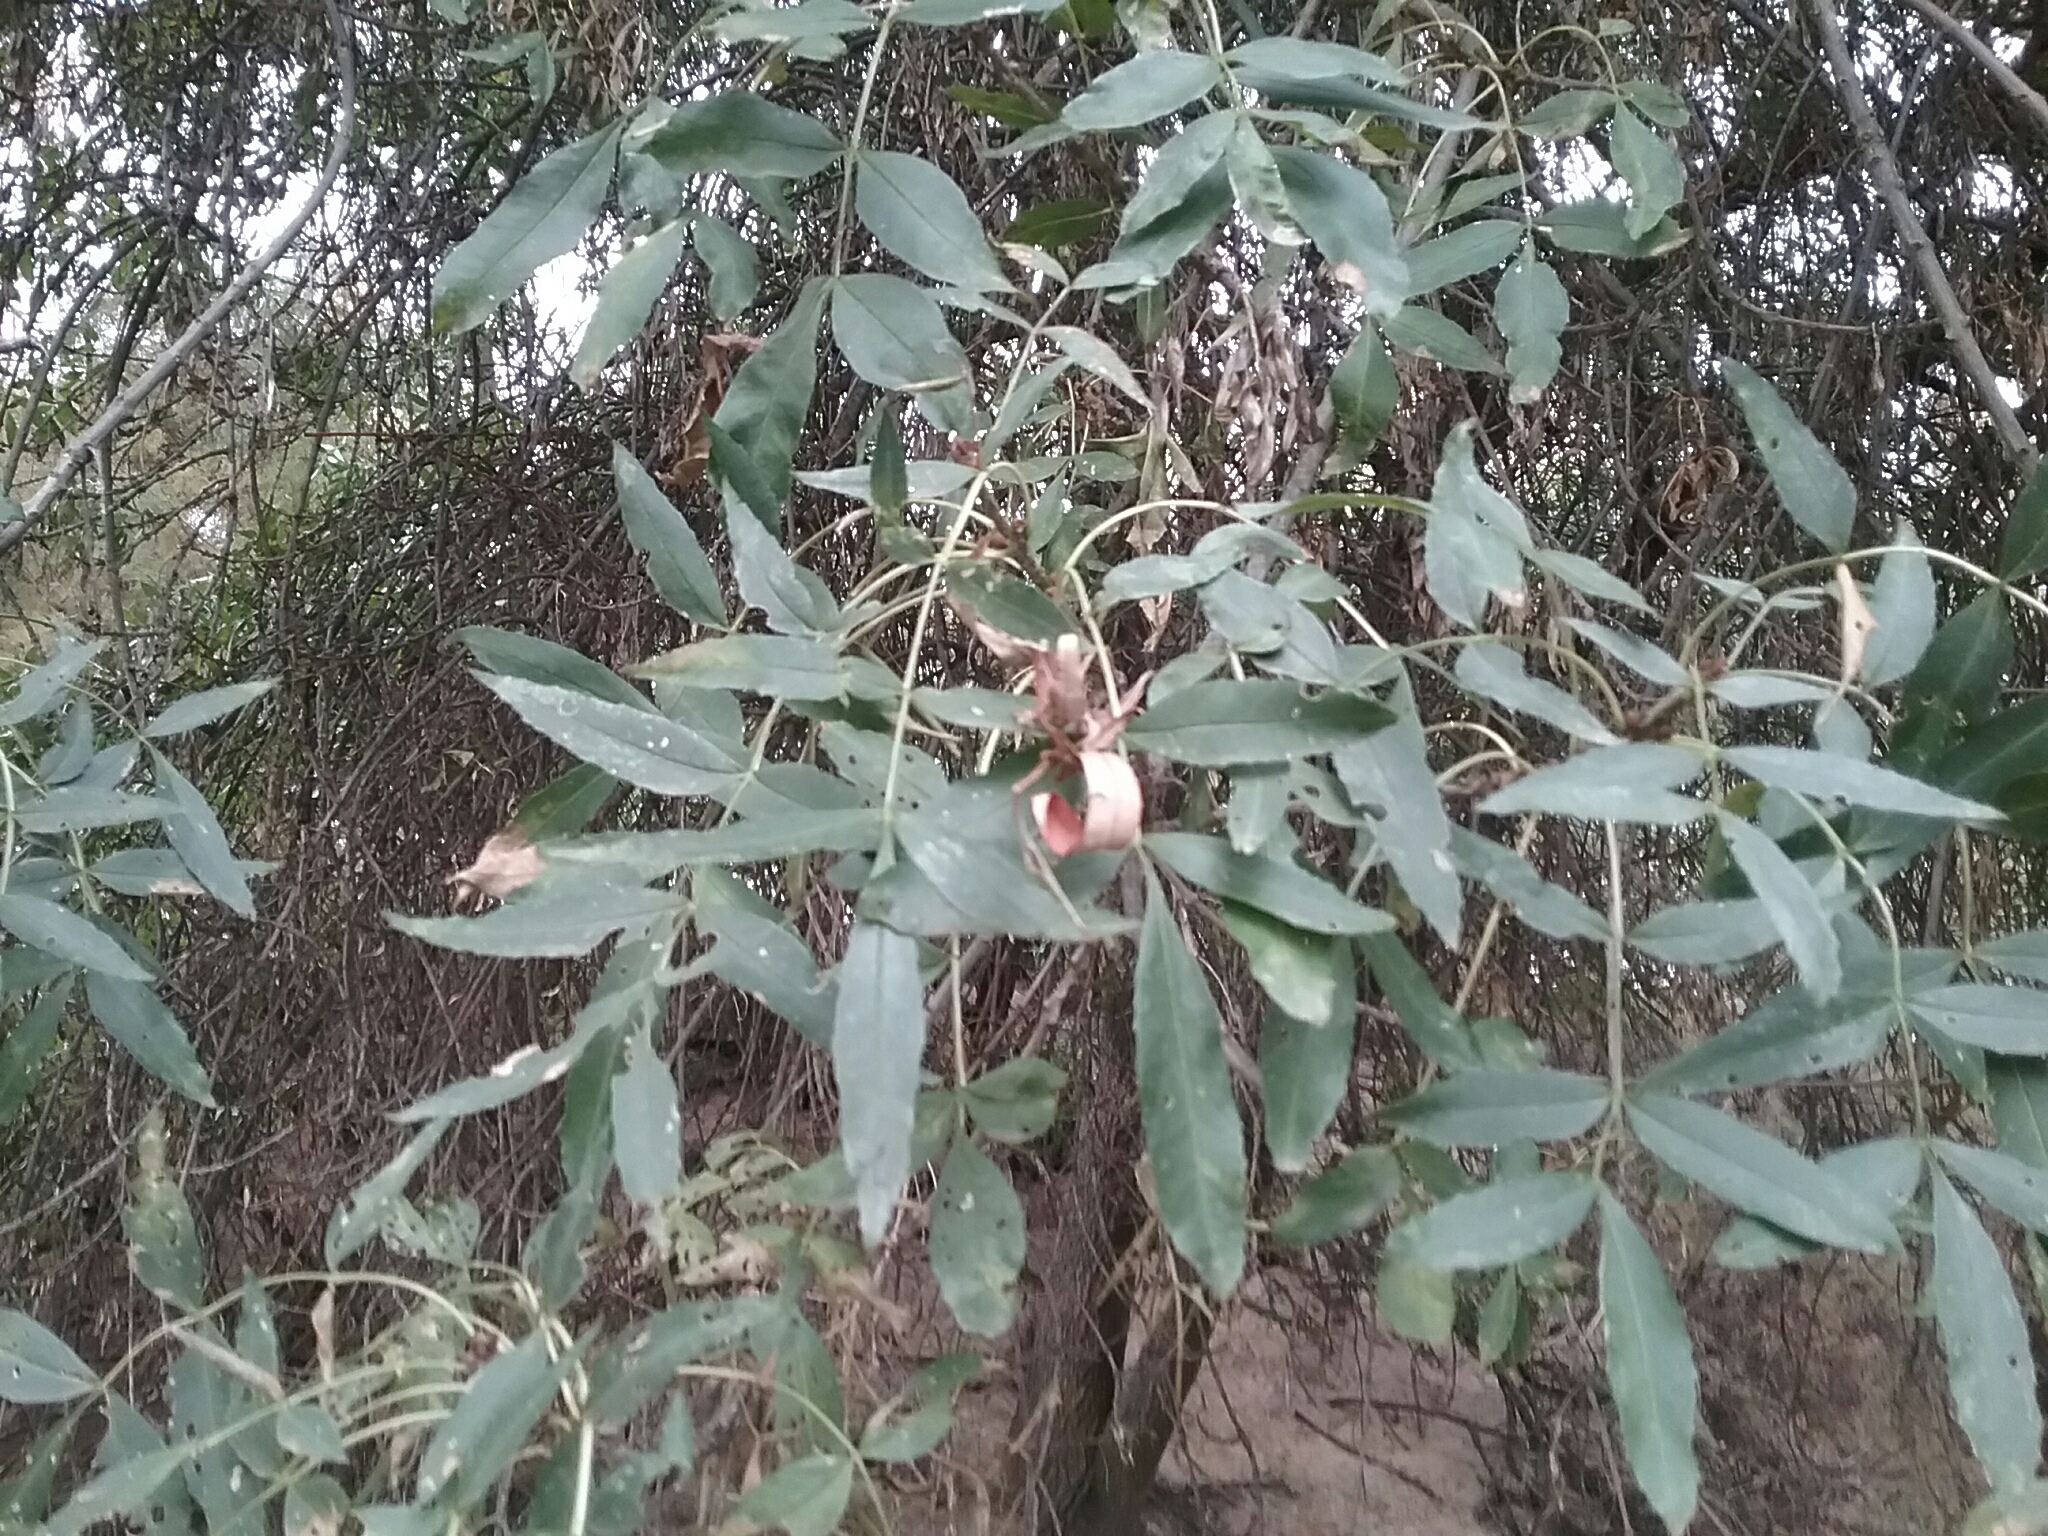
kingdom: Plantae
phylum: Tracheophyta
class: Magnoliopsida
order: Lamiales
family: Oleaceae
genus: Fraxinus
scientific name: Fraxinus angustifolia
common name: Narrow-leafed ash
